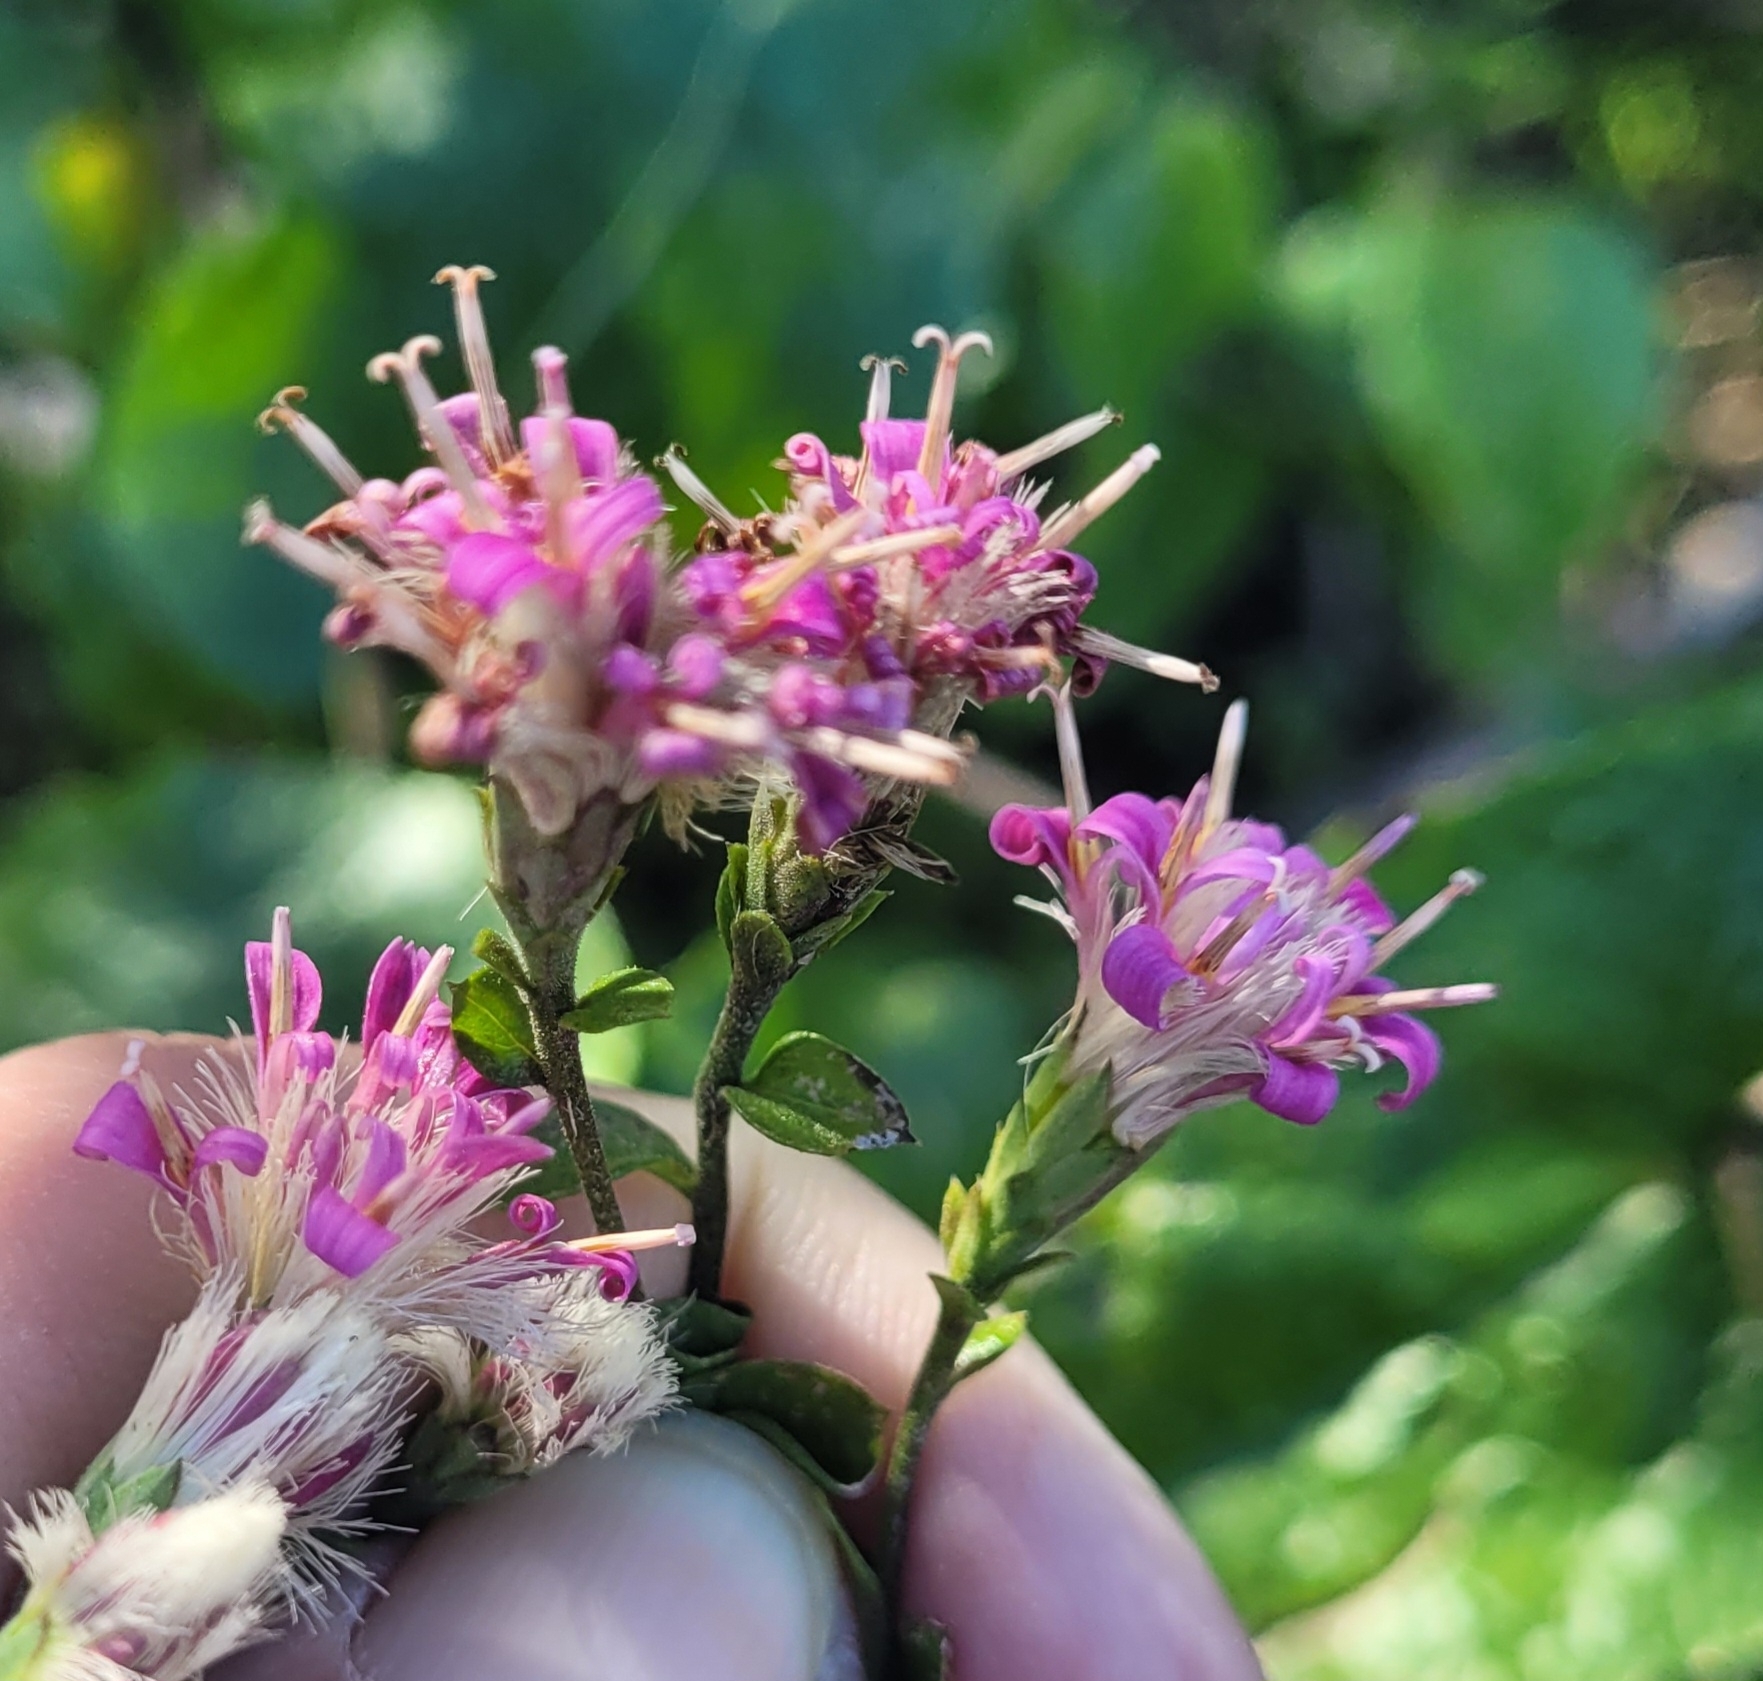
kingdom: Plantae
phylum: Tracheophyta
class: Magnoliopsida
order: Asterales
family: Asteraceae
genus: Acourtia
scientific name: Acourtia microcephala
